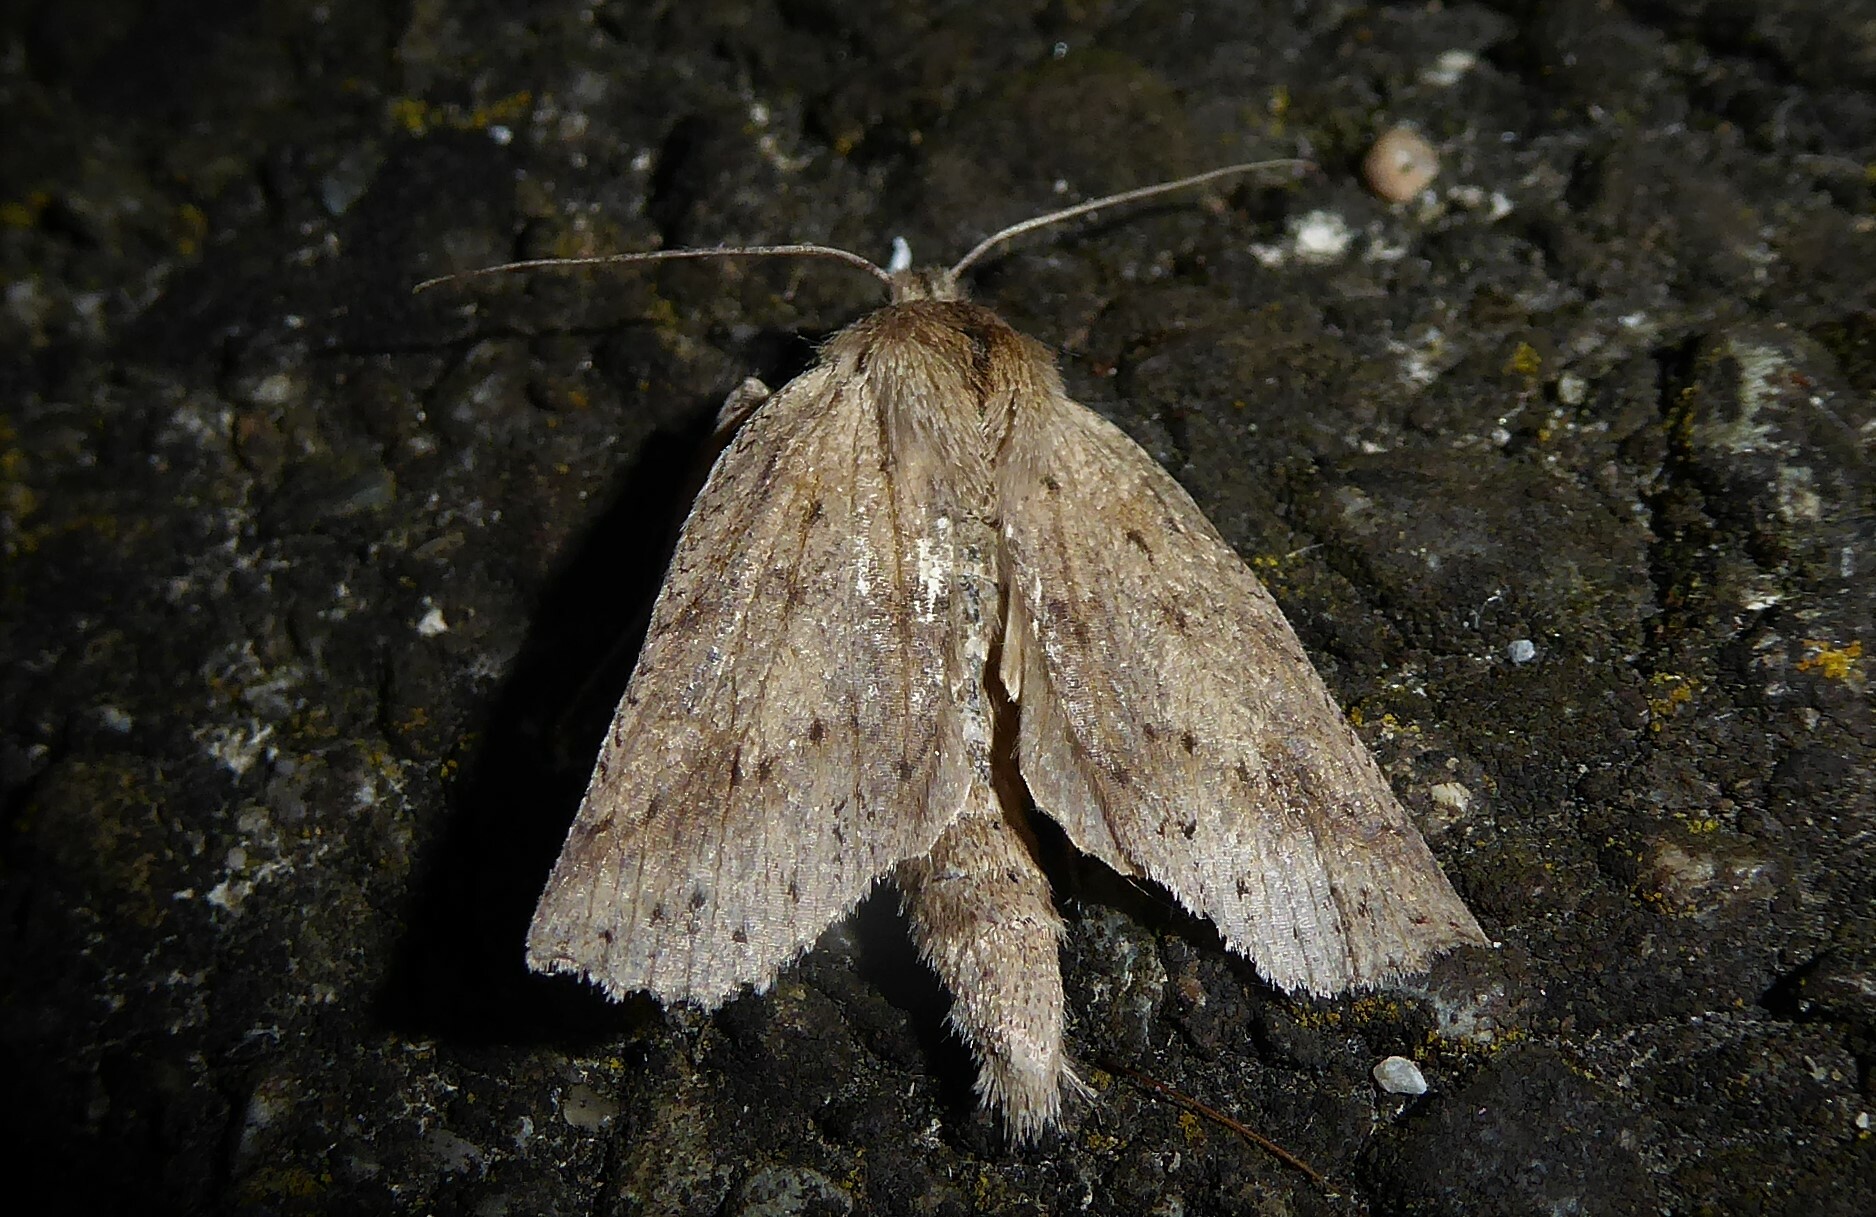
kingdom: Animalia
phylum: Arthropoda
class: Insecta
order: Lepidoptera
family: Geometridae
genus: Declana
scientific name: Declana leptomera
